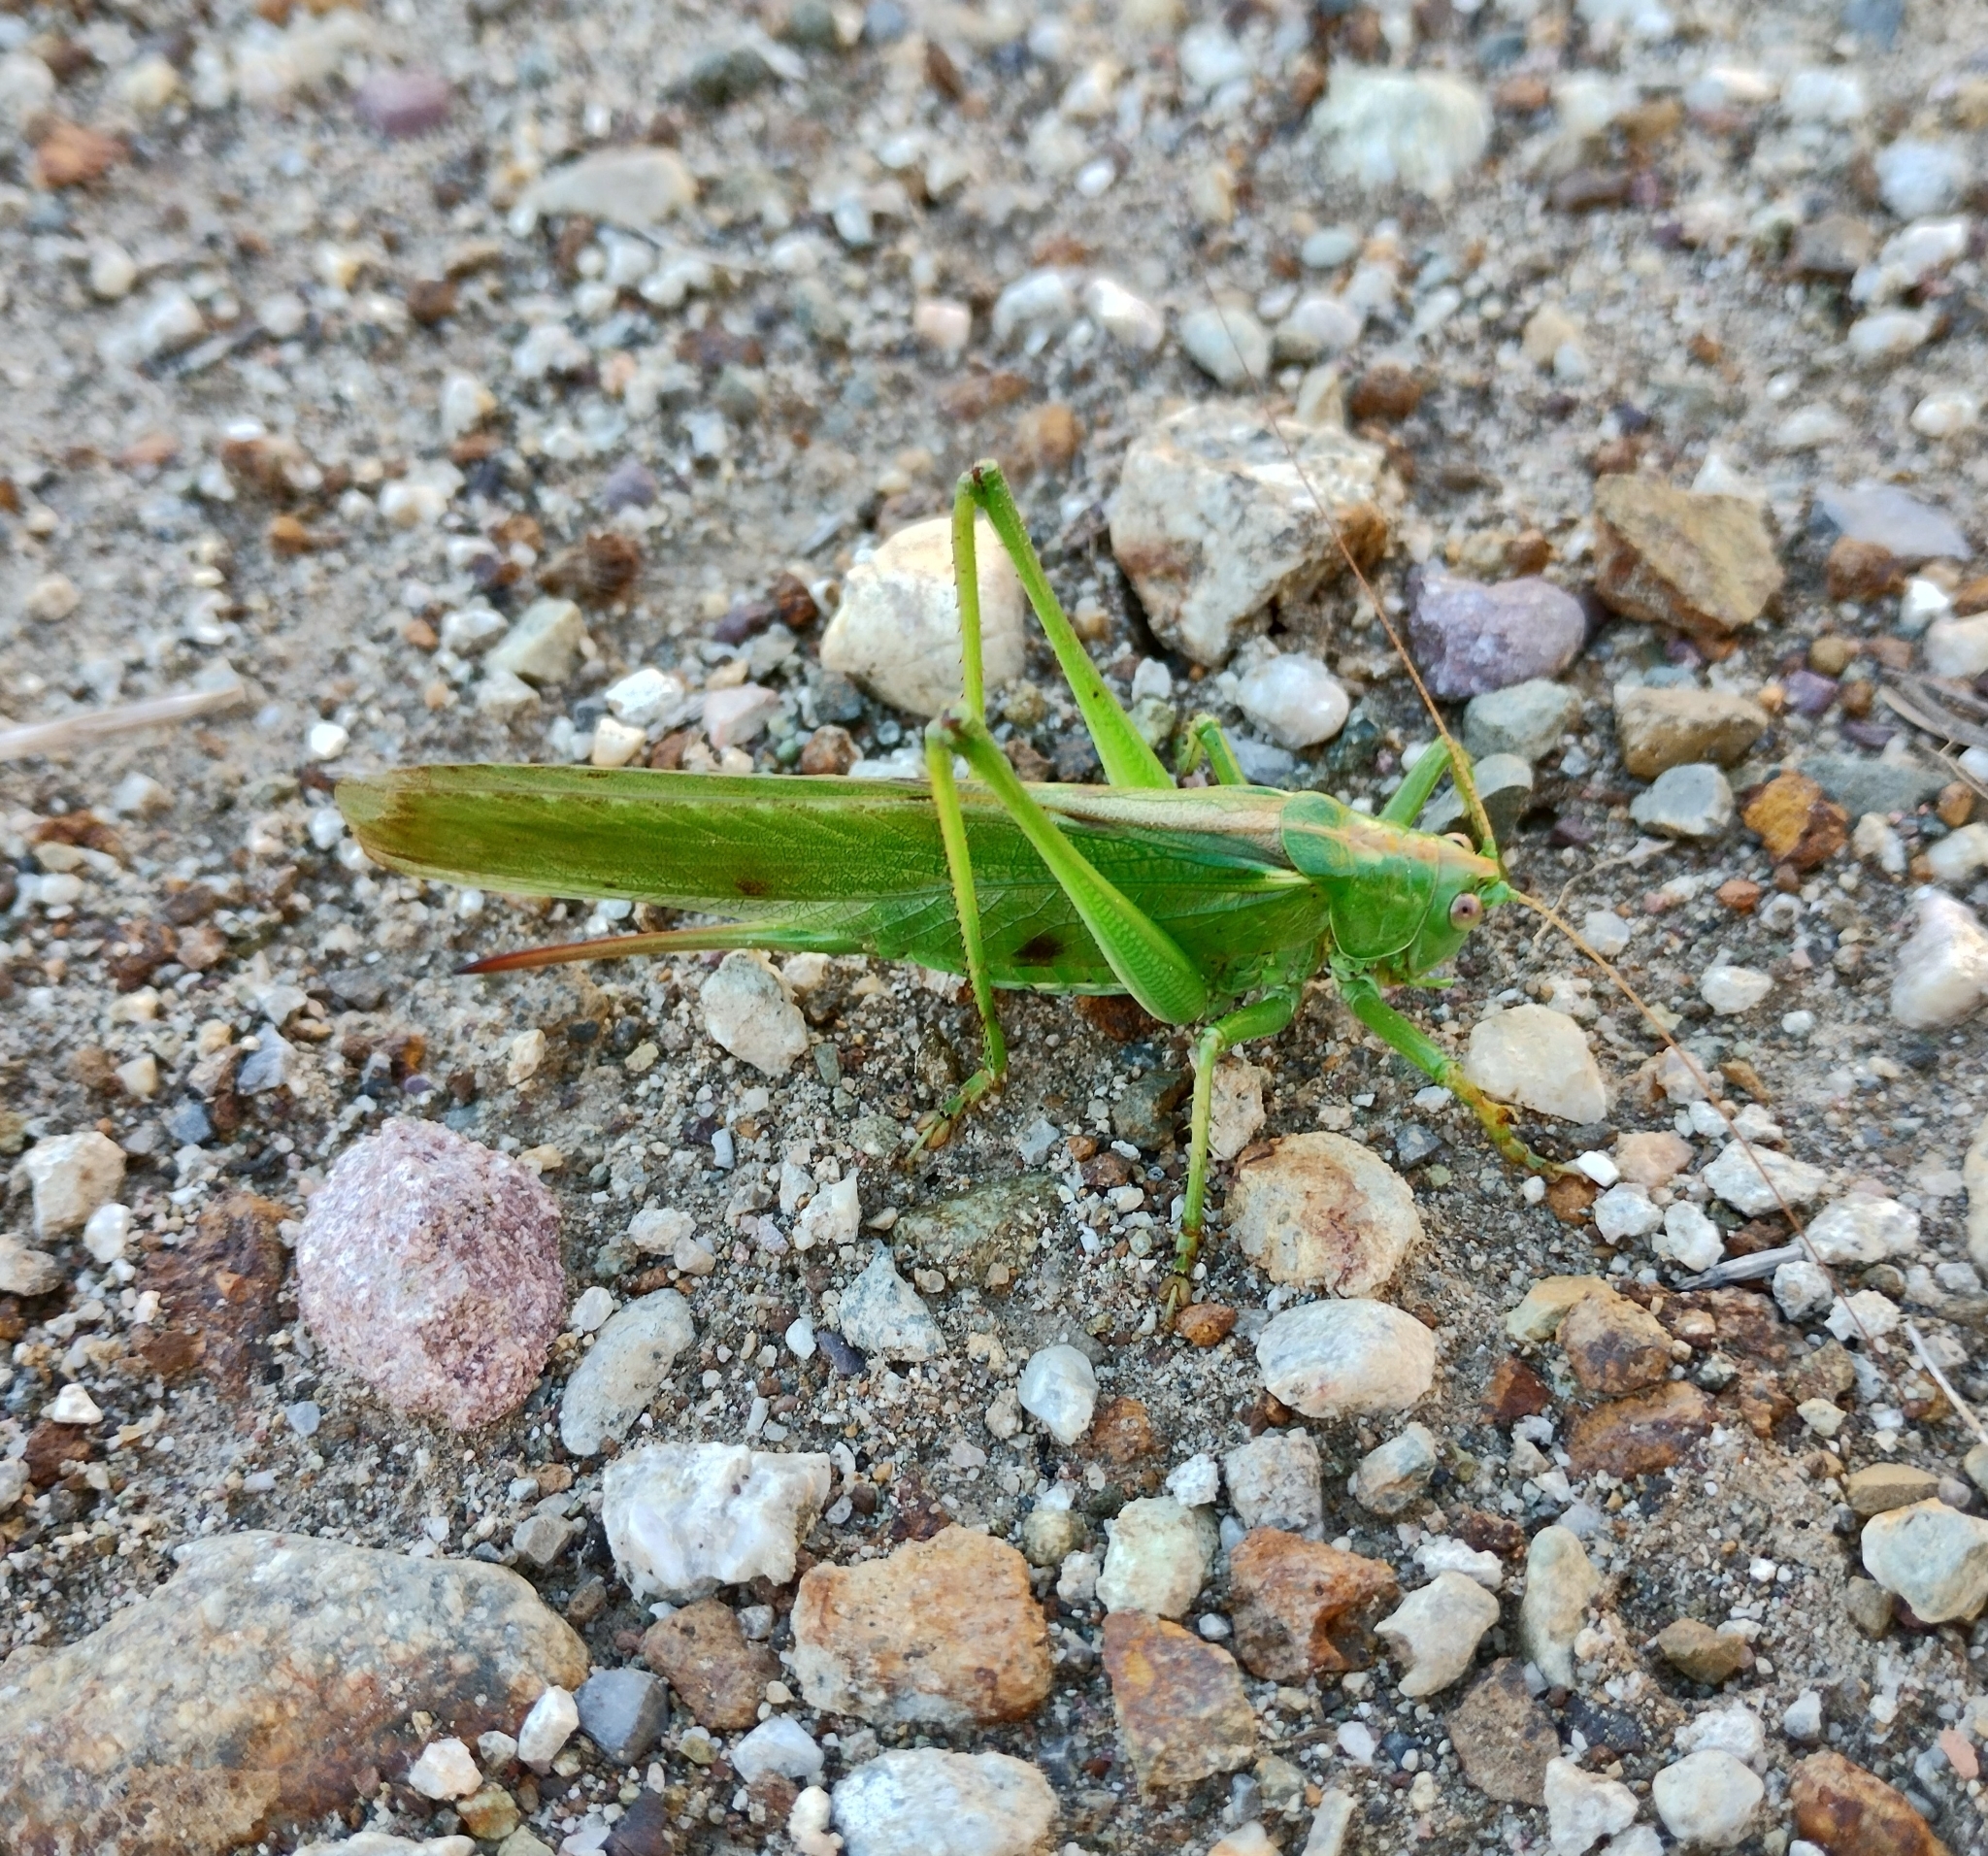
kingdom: Animalia
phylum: Arthropoda
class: Insecta
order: Orthoptera
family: Tettigoniidae
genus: Tettigonia
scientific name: Tettigonia viridissima
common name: Great green bush-cricket
